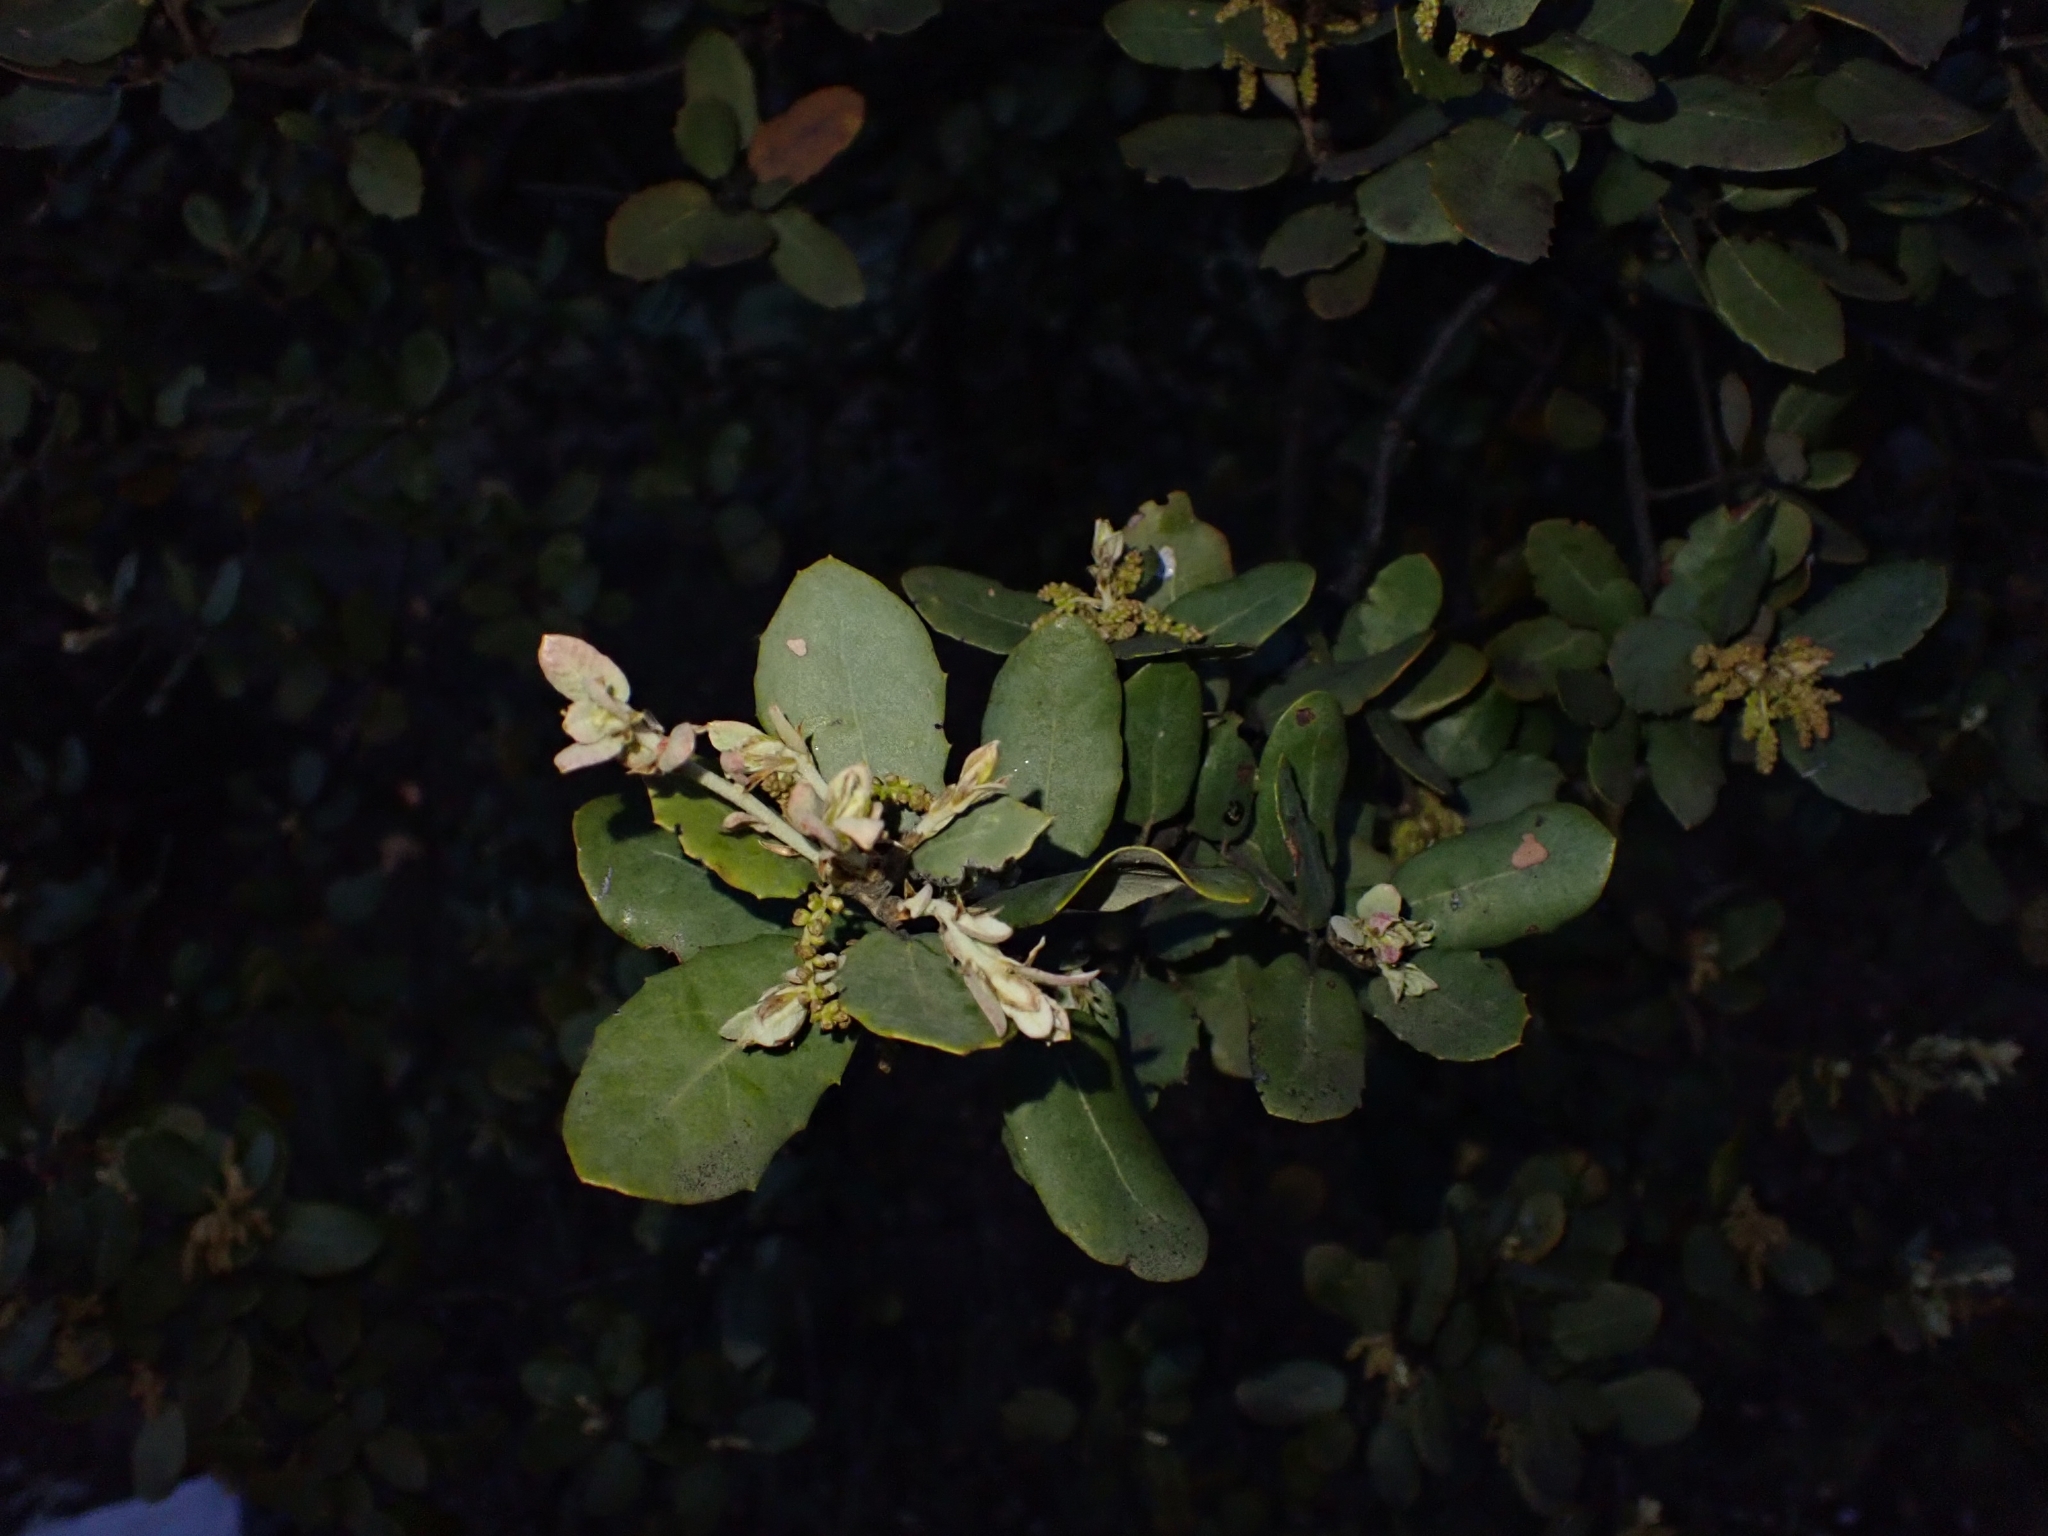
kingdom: Plantae
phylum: Tracheophyta
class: Magnoliopsida
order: Fagales
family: Fagaceae
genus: Quercus
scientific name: Quercus rotundifolia
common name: Holm oak
